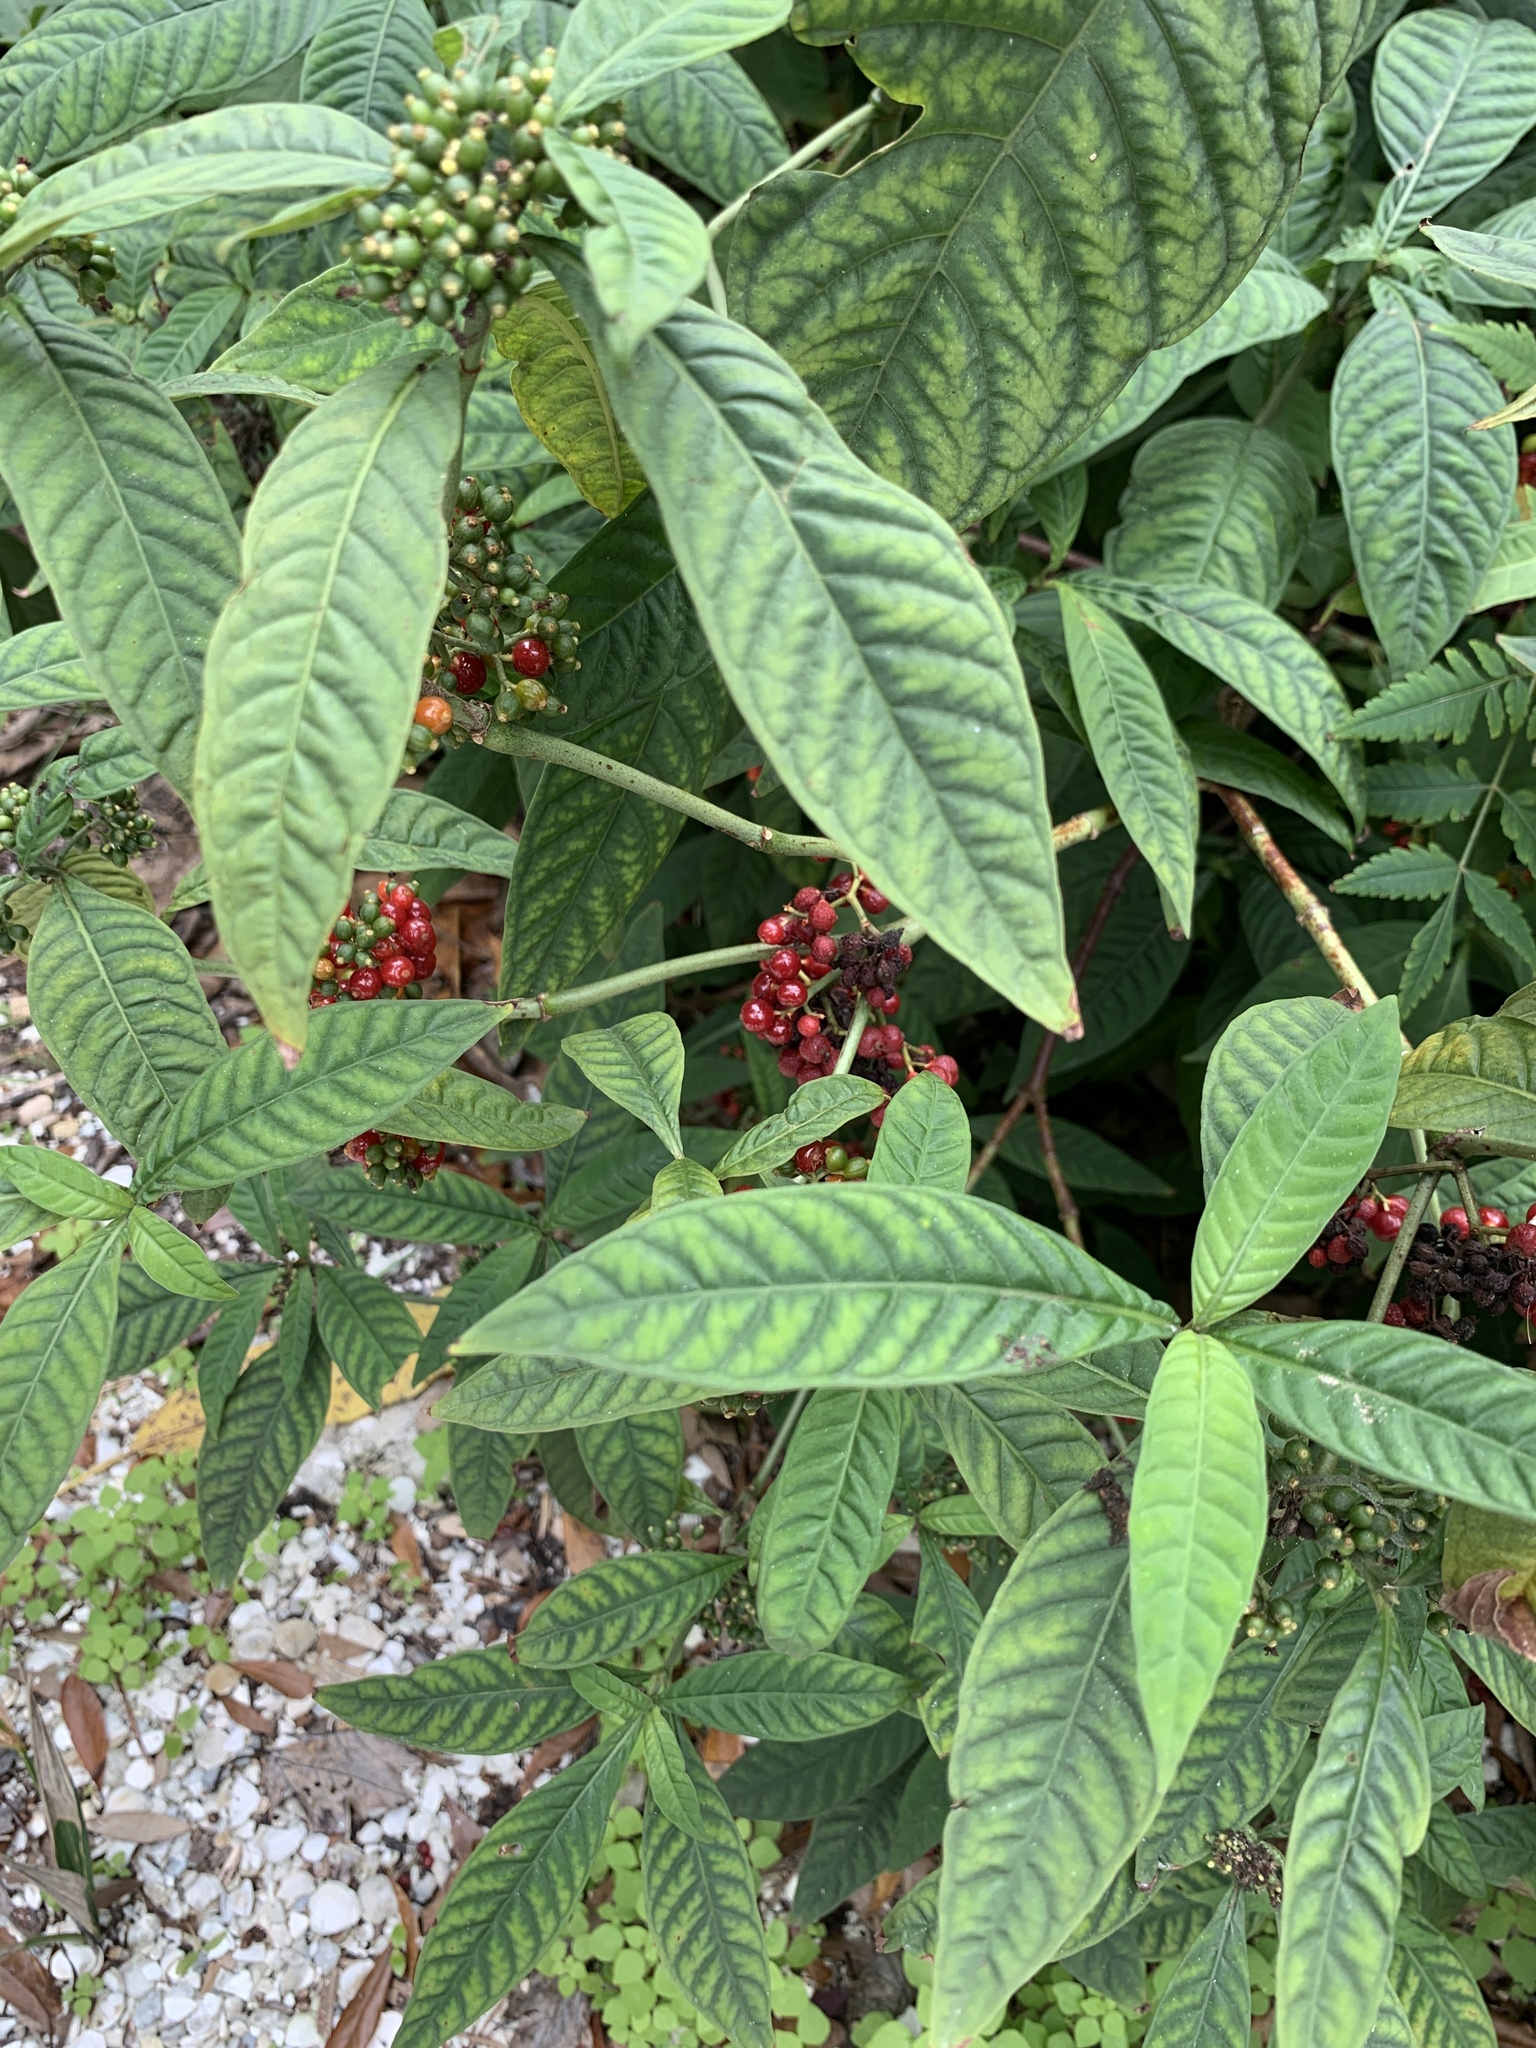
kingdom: Plantae
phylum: Tracheophyta
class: Magnoliopsida
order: Gentianales
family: Rubiaceae
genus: Psychotria
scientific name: Psychotria tenuifolia
